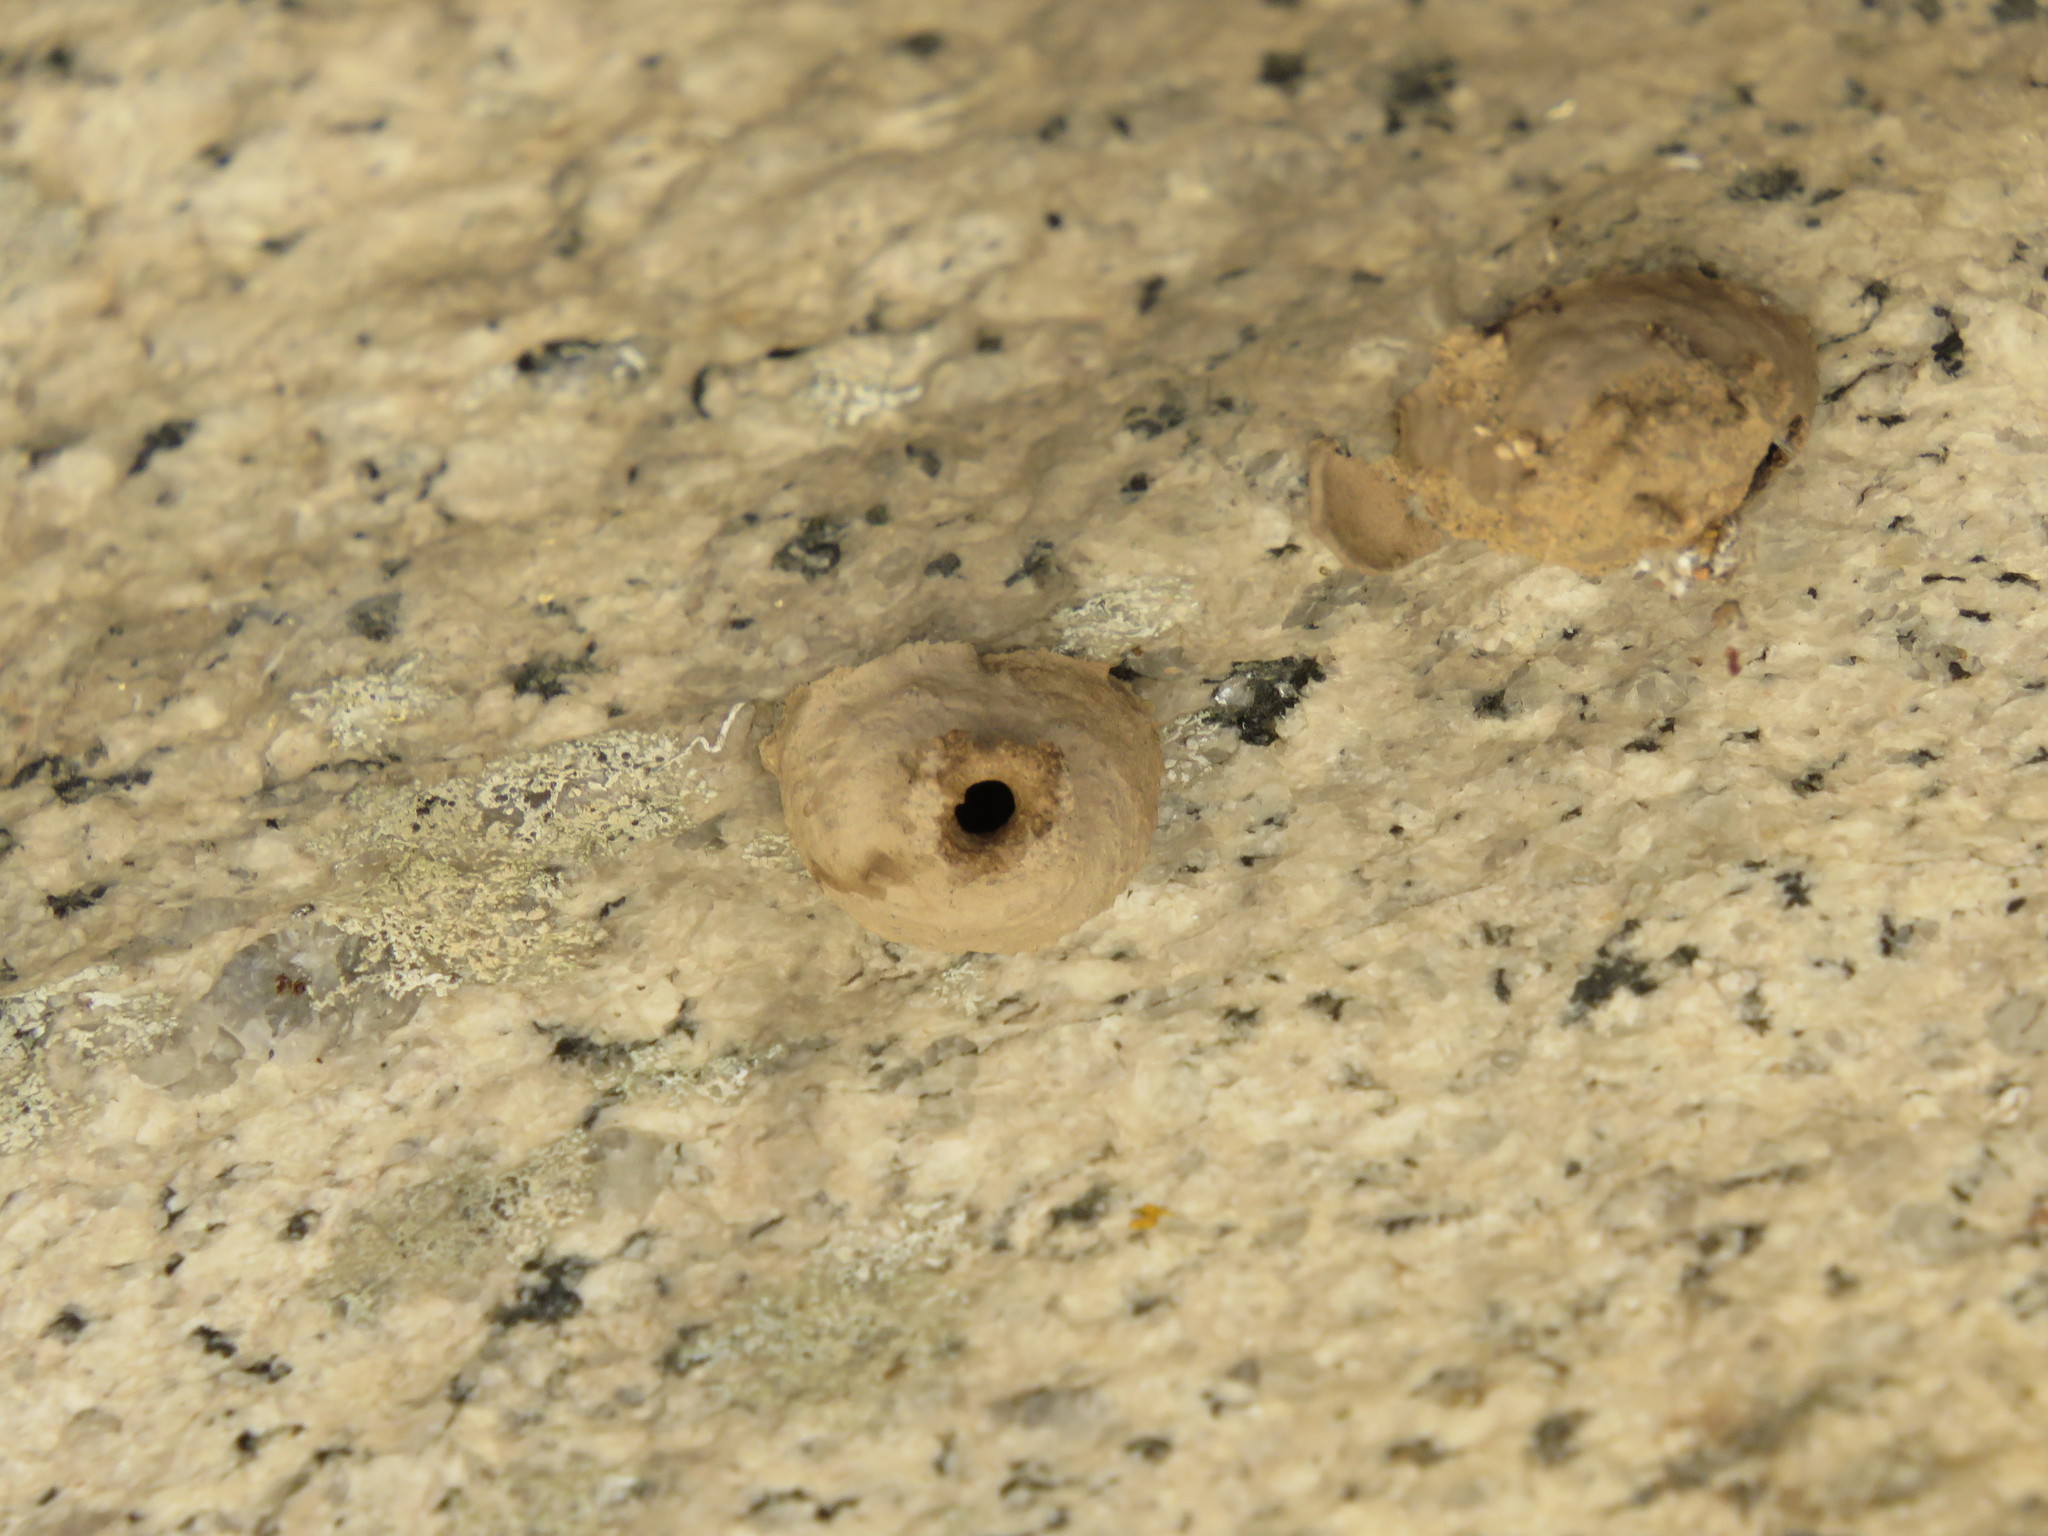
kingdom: Animalia
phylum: Arthropoda
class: Insecta
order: Hymenoptera
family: Eumenidae
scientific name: Eumenidae
